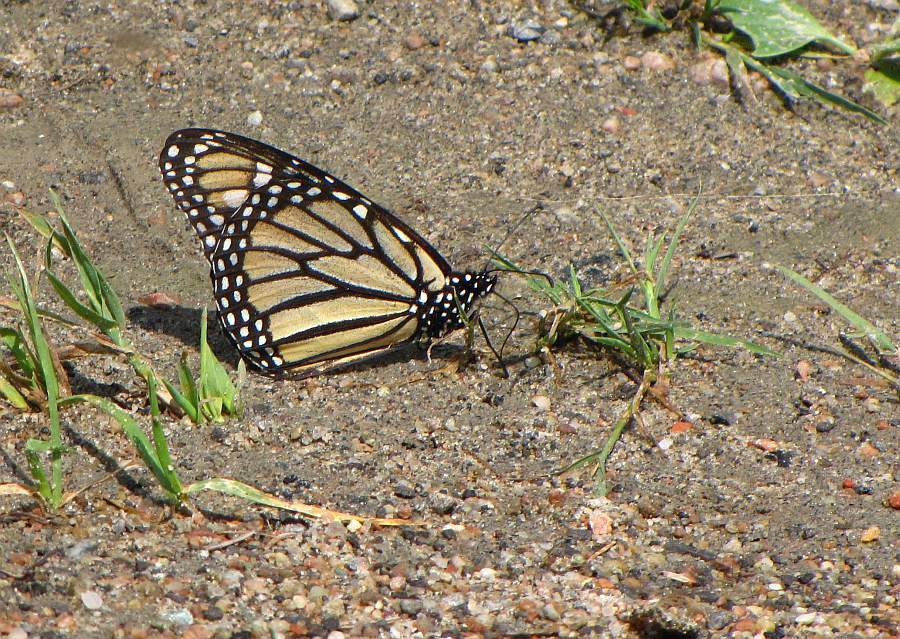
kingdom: Animalia
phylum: Arthropoda
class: Insecta
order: Lepidoptera
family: Nymphalidae
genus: Danaus
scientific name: Danaus plexippus
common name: Monarch
